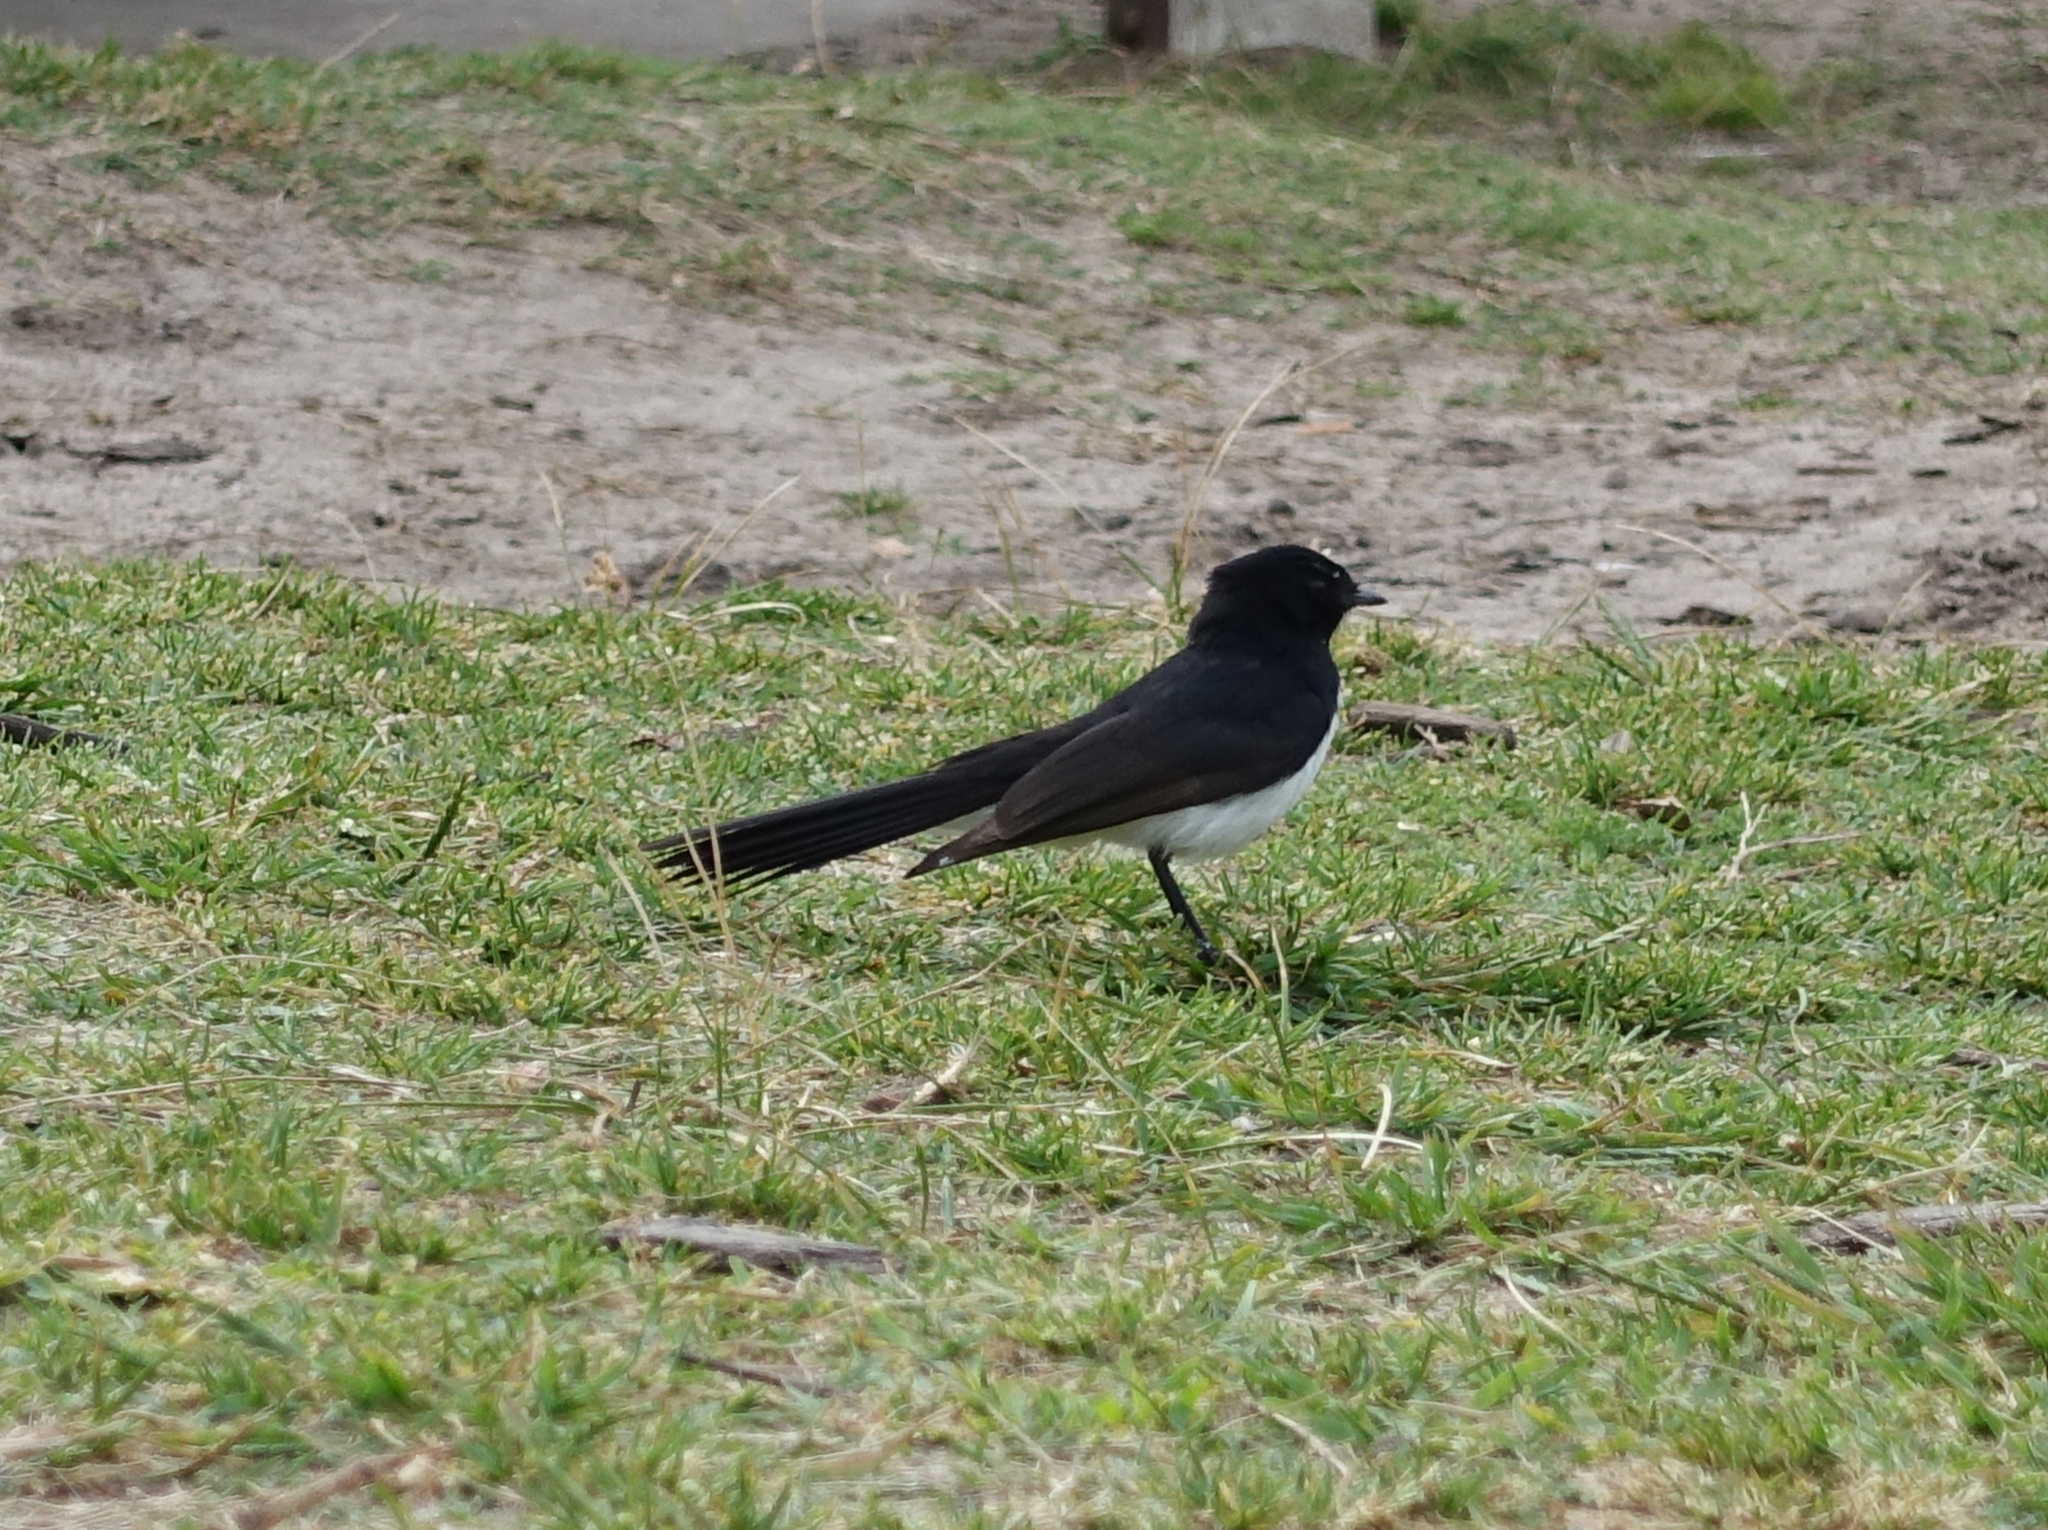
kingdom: Animalia
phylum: Chordata
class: Aves
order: Passeriformes
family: Rhipiduridae
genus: Rhipidura
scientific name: Rhipidura leucophrys
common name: Willie wagtail
